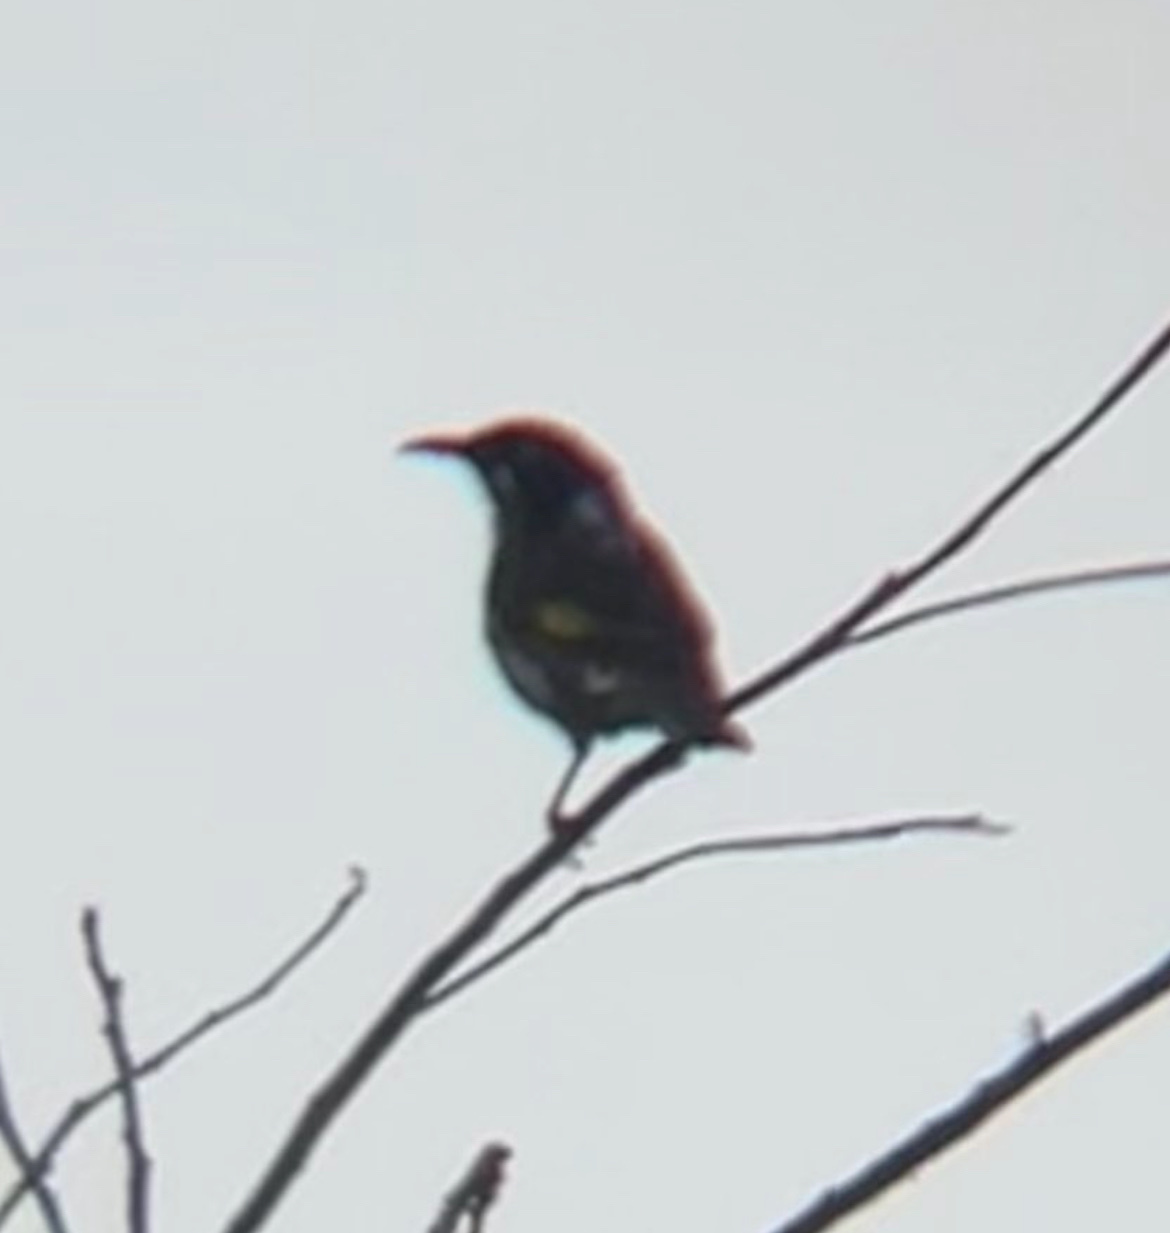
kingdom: Animalia
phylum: Chordata
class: Aves
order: Passeriformes
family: Meliphagidae
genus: Phylidonyris
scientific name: Phylidonyris novaehollandiae
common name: New holland honeyeater
